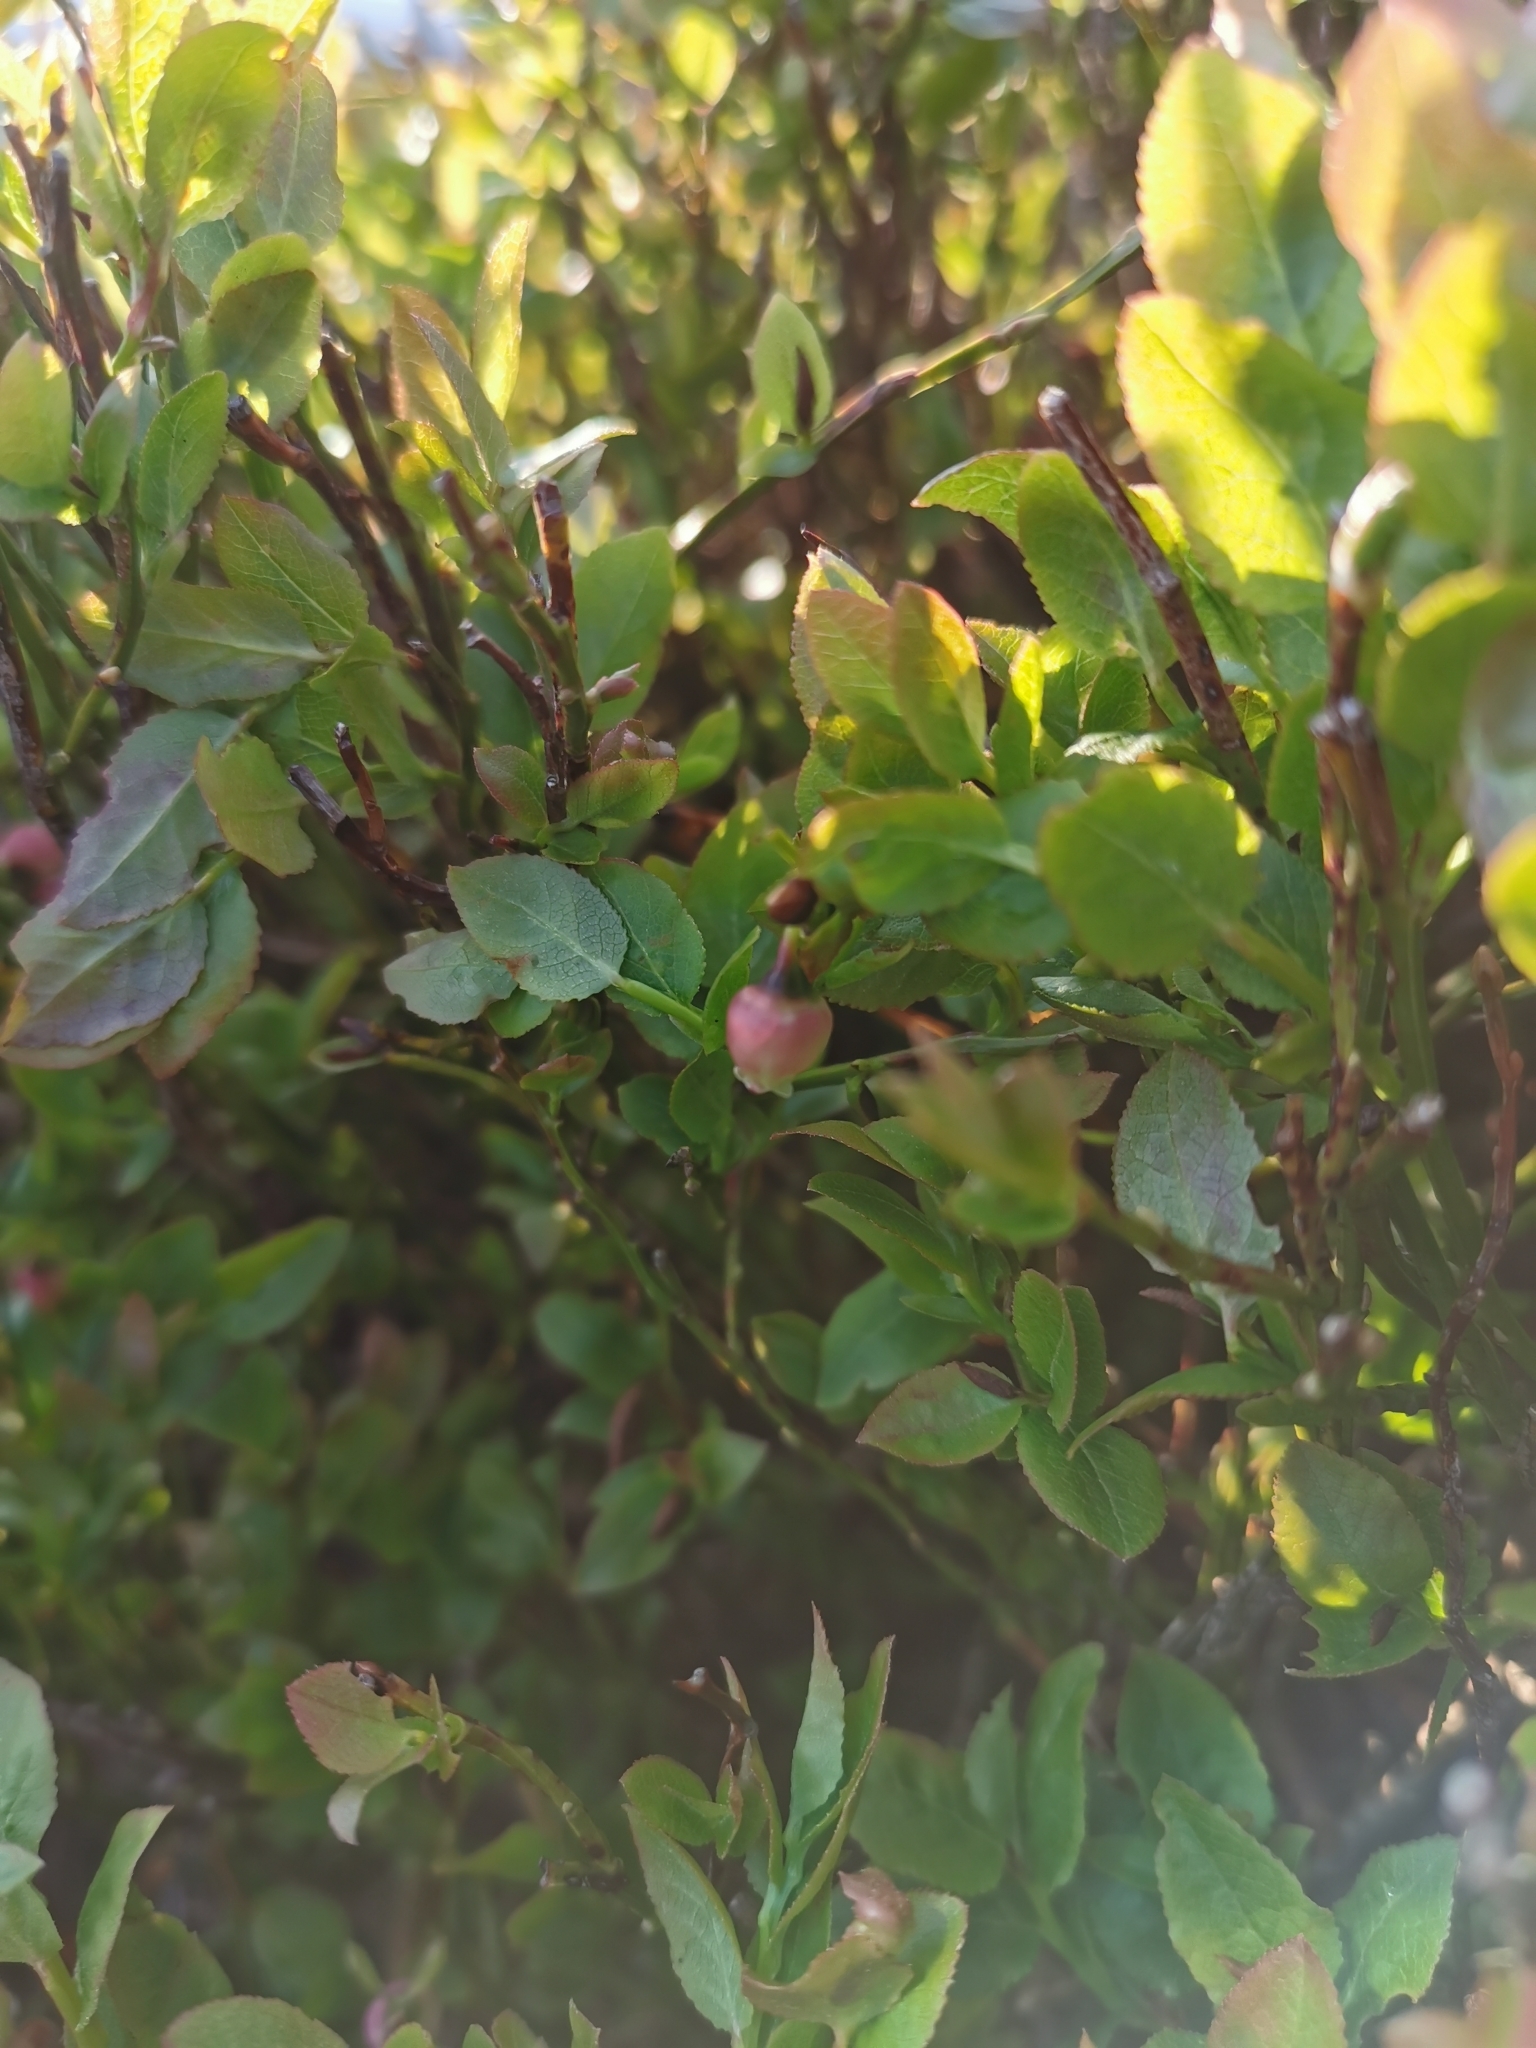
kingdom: Plantae
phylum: Tracheophyta
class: Magnoliopsida
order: Ericales
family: Ericaceae
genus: Vaccinium
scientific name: Vaccinium myrtillus
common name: Bilberry
